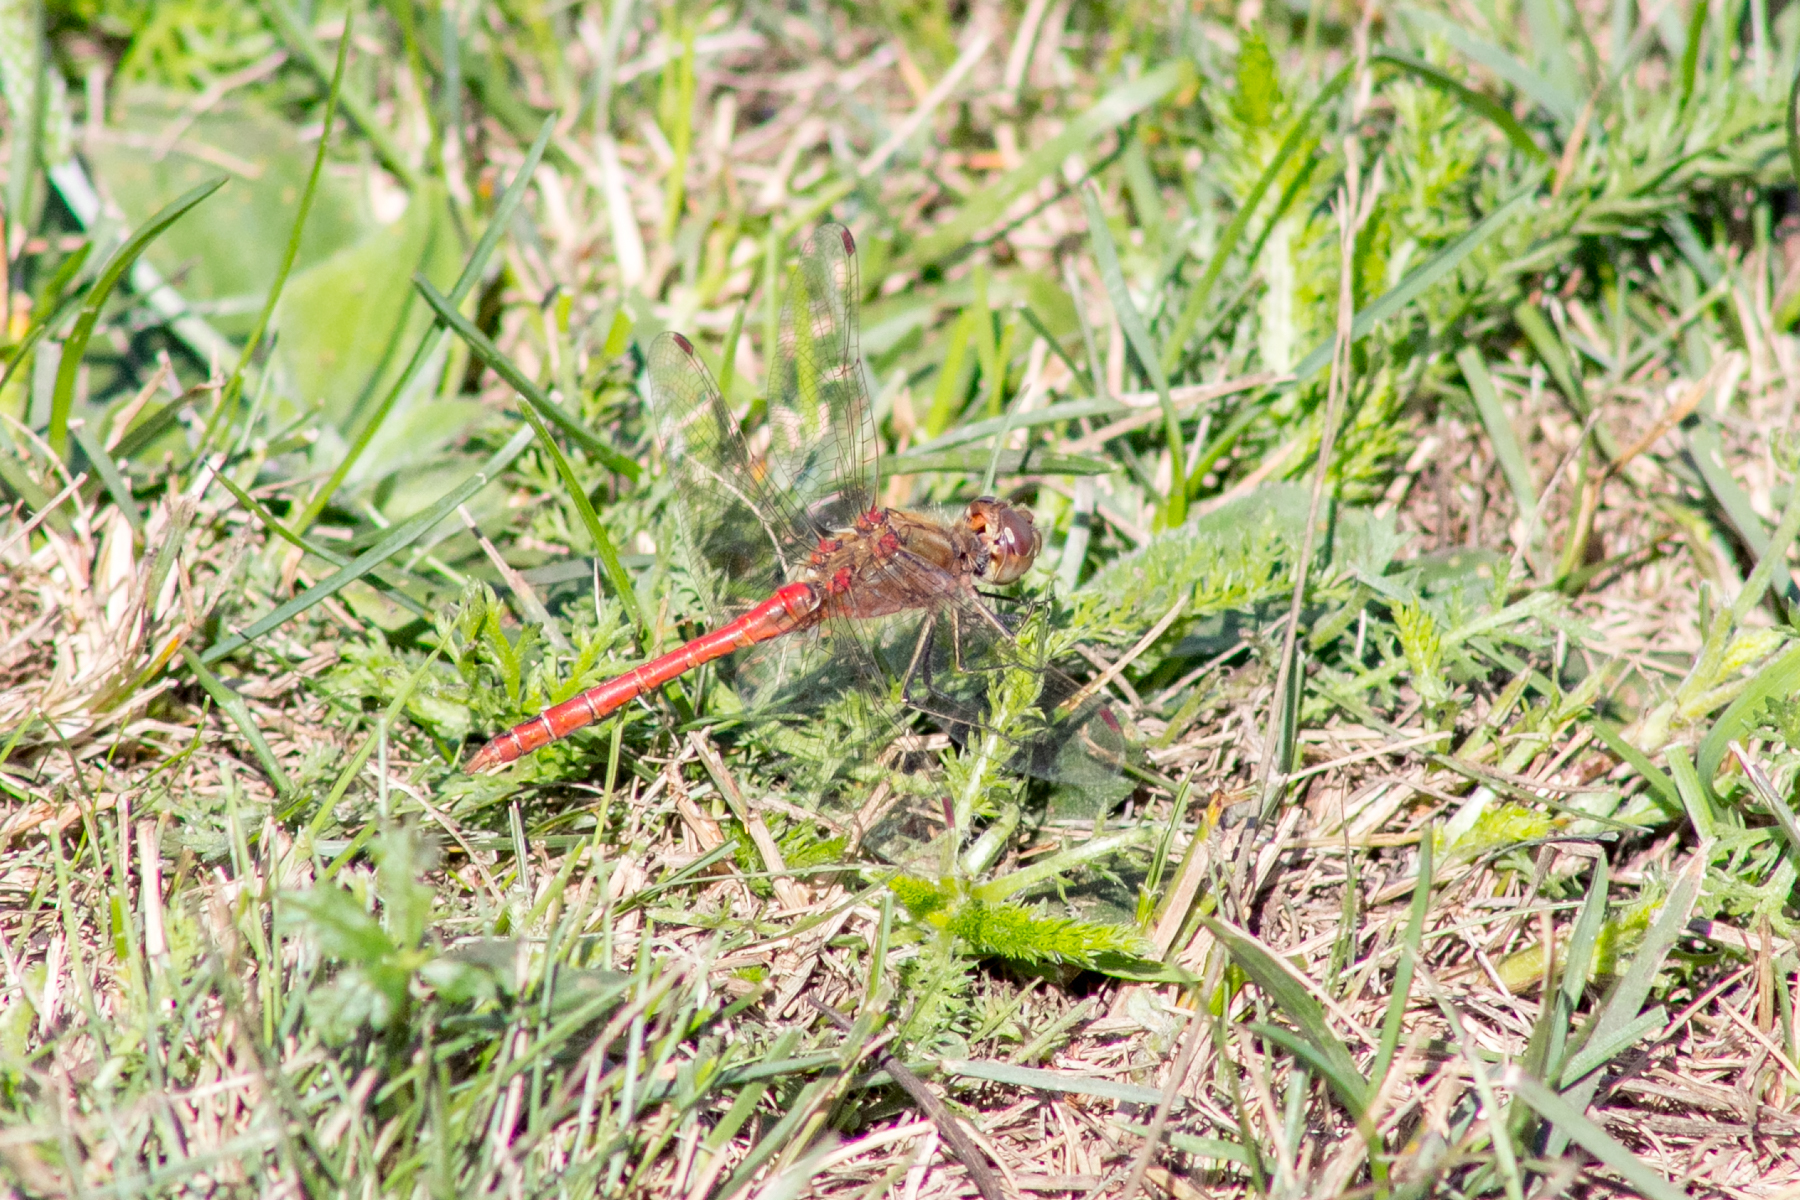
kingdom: Animalia
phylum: Arthropoda
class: Insecta
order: Odonata
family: Libellulidae
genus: Sympetrum
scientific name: Sympetrum vulgatum
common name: Vagrant darter
